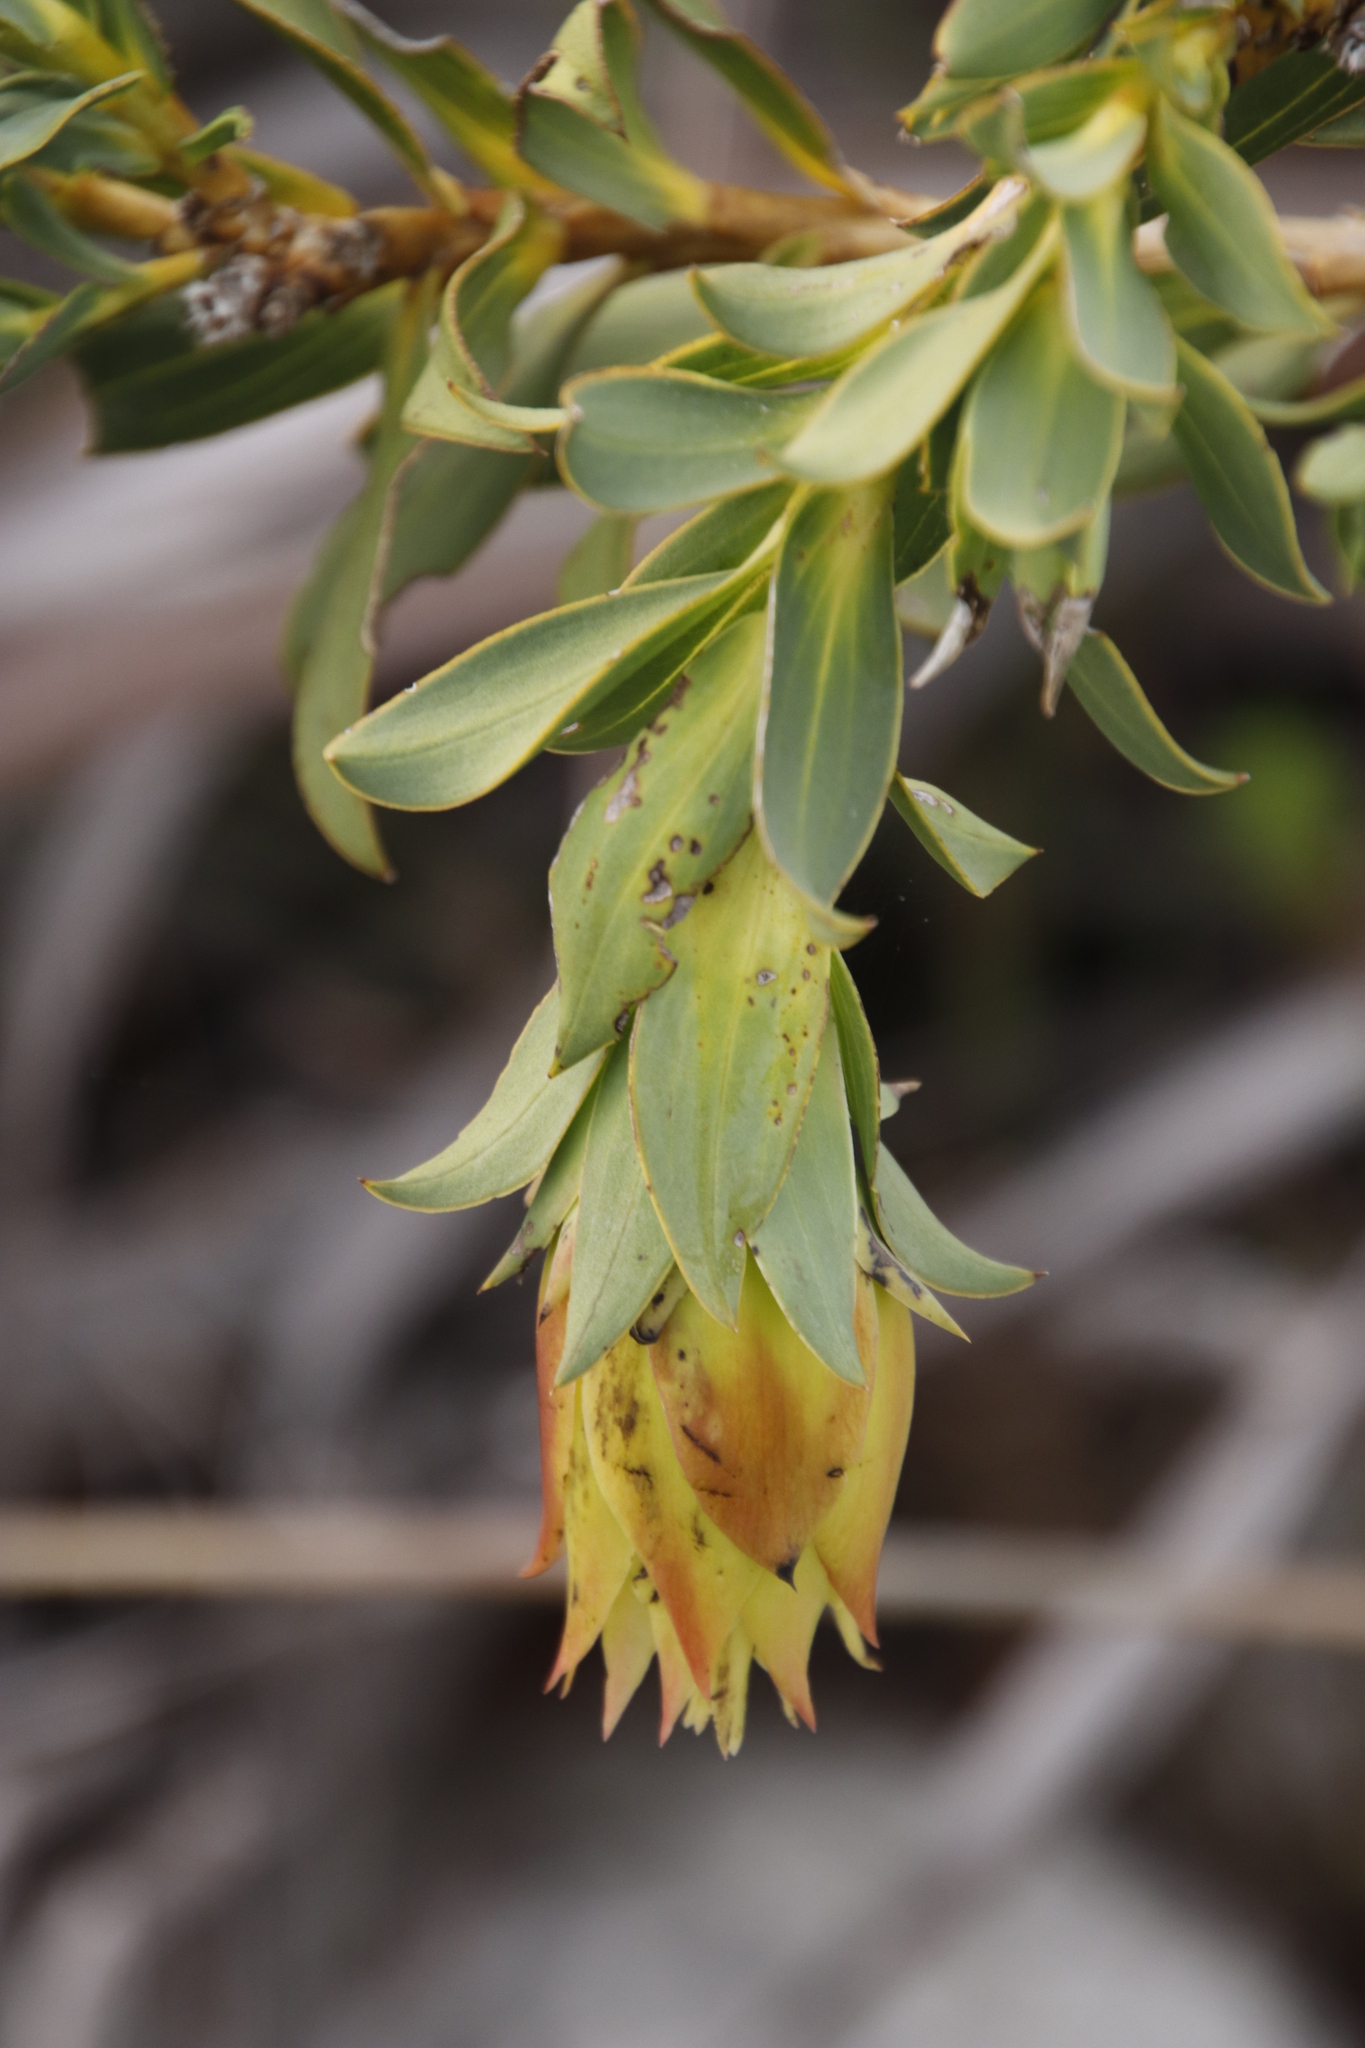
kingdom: Plantae
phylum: Tracheophyta
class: Magnoliopsida
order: Fabales
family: Fabaceae
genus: Liparia
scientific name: Liparia splendens
